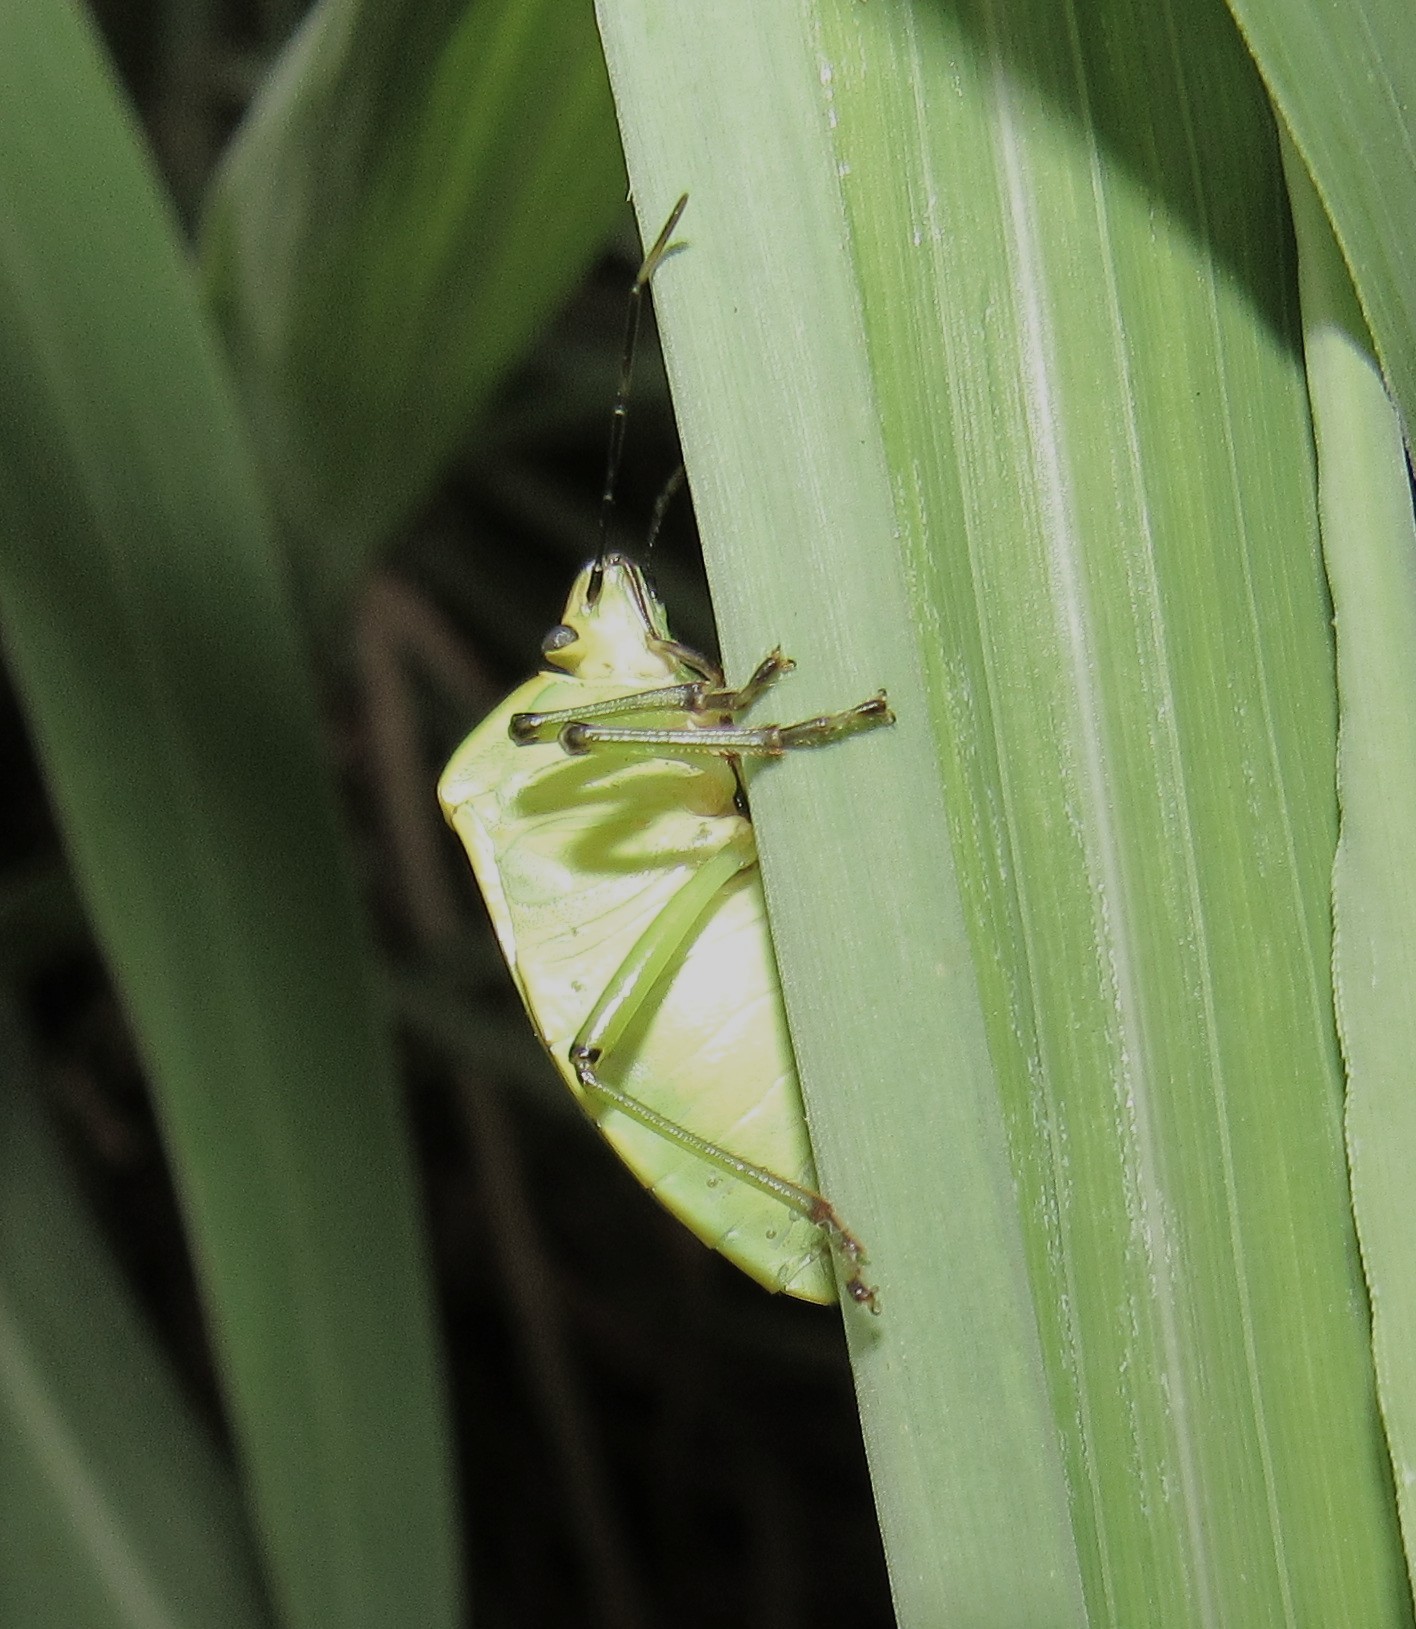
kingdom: Animalia
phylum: Arthropoda
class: Insecta
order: Hemiptera
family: Pentatomidae
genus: Chinavia
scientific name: Chinavia geniculata
